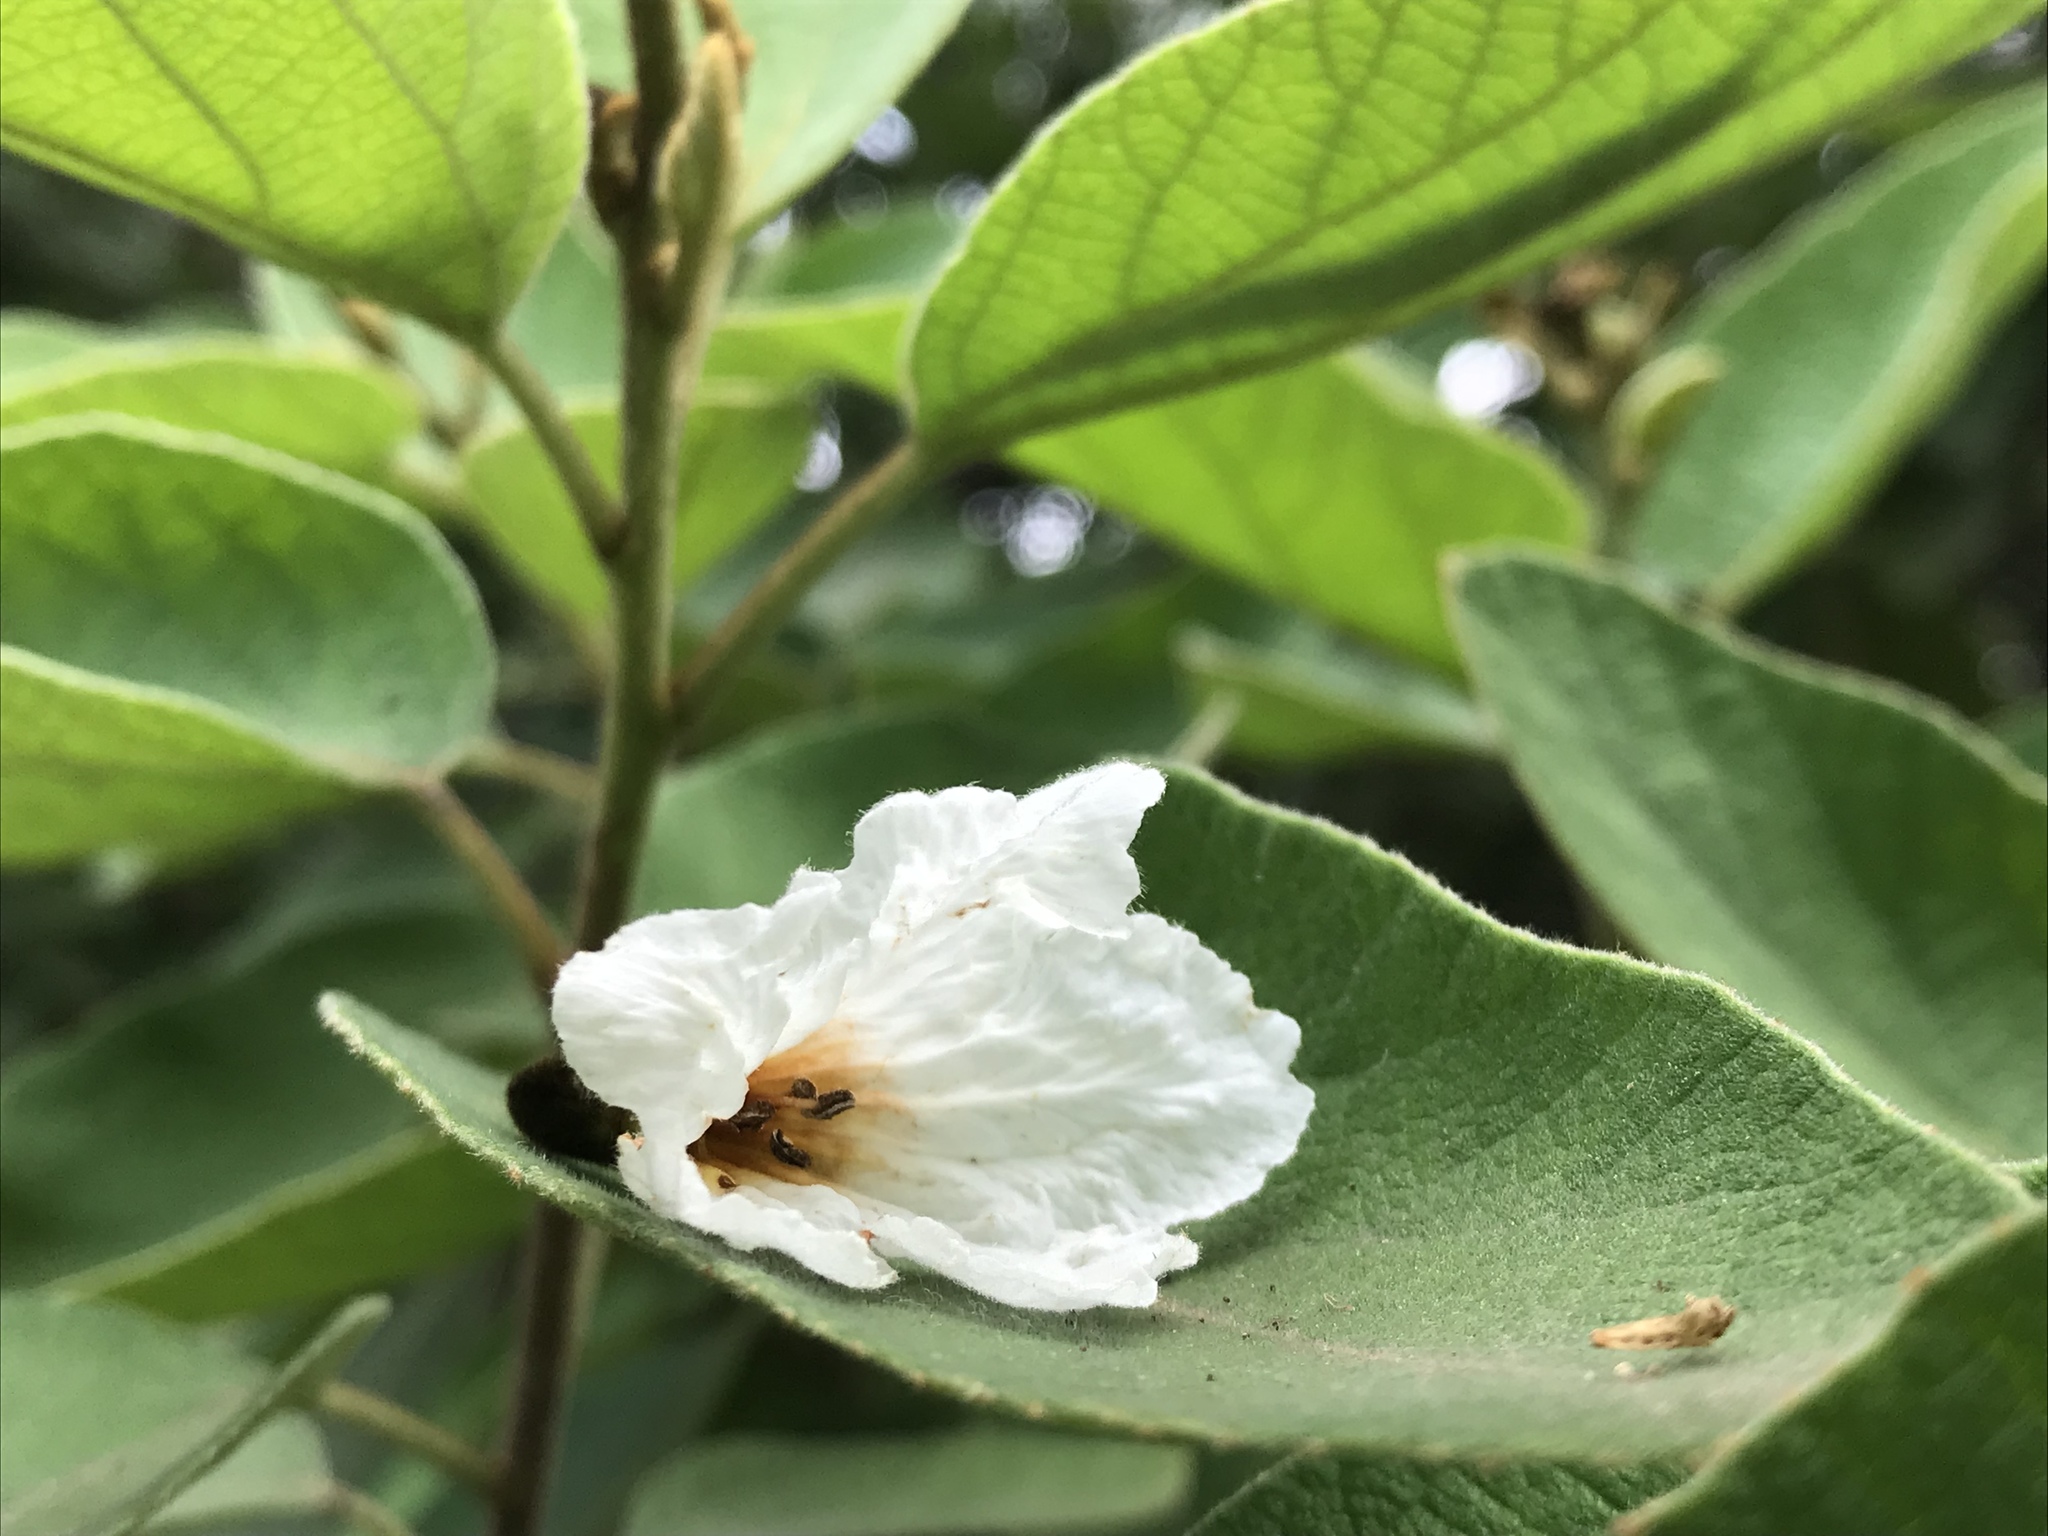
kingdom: Plantae
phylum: Tracheophyta
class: Magnoliopsida
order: Boraginales
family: Cordiaceae
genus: Cordia
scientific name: Cordia boissieri
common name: Mexican-olive
